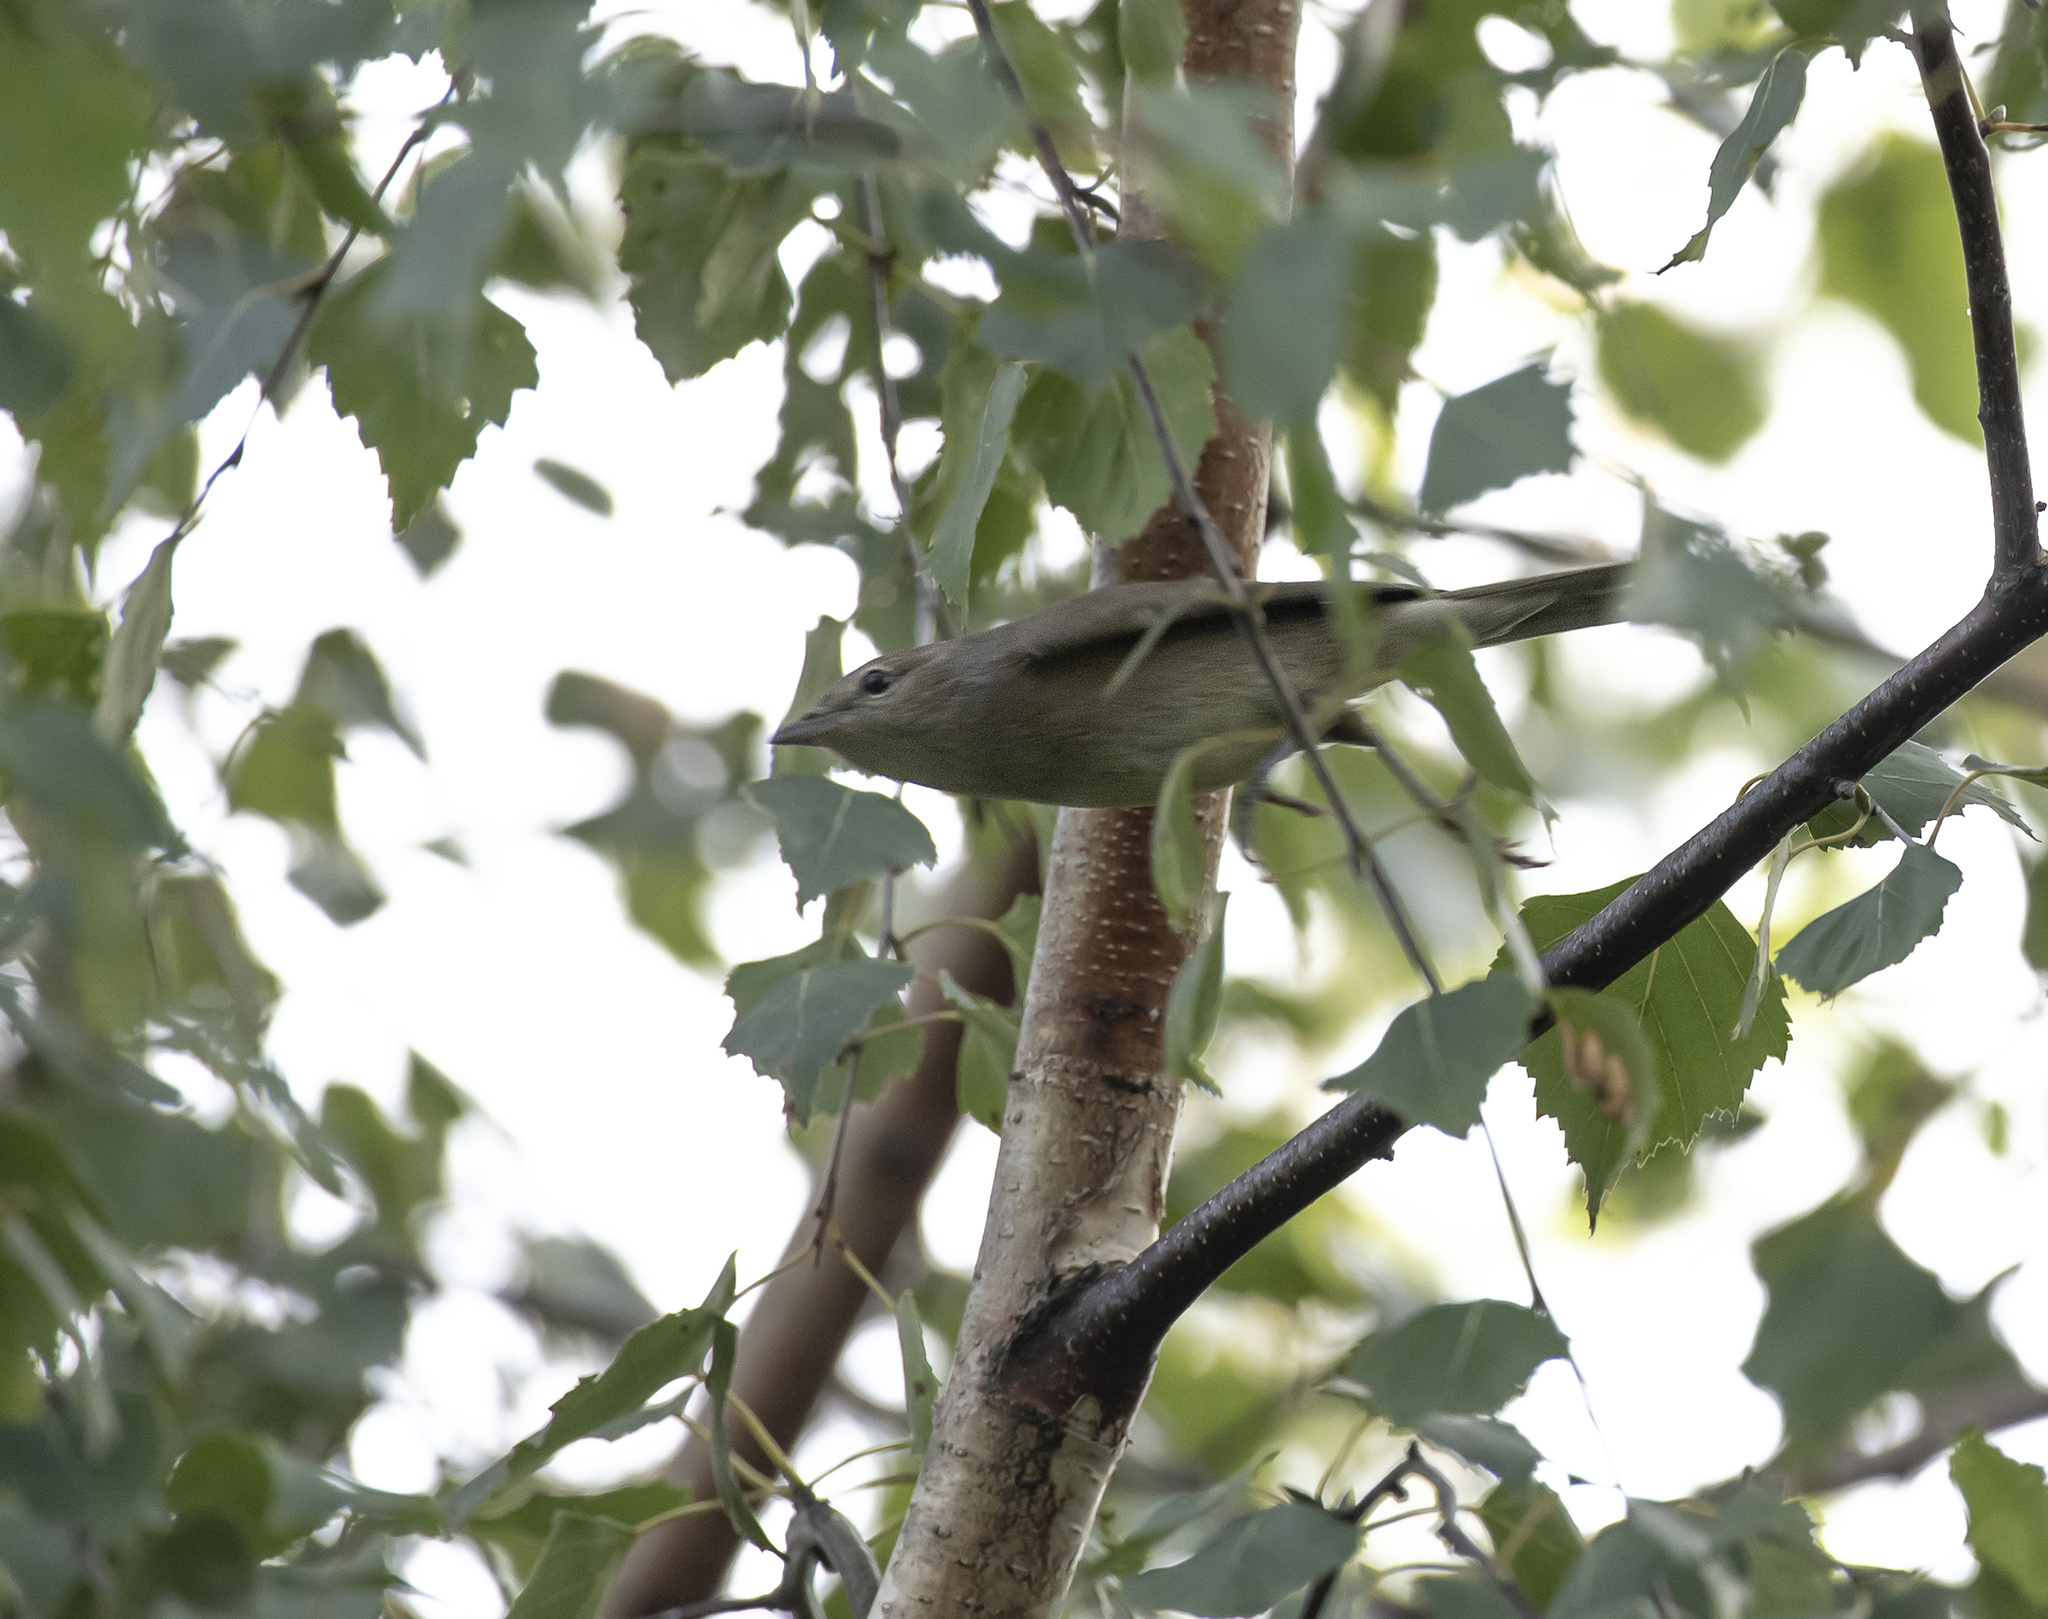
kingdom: Animalia
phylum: Chordata
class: Aves
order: Passeriformes
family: Sylviidae
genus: Sylvia
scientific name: Sylvia borin
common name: Garden warbler
